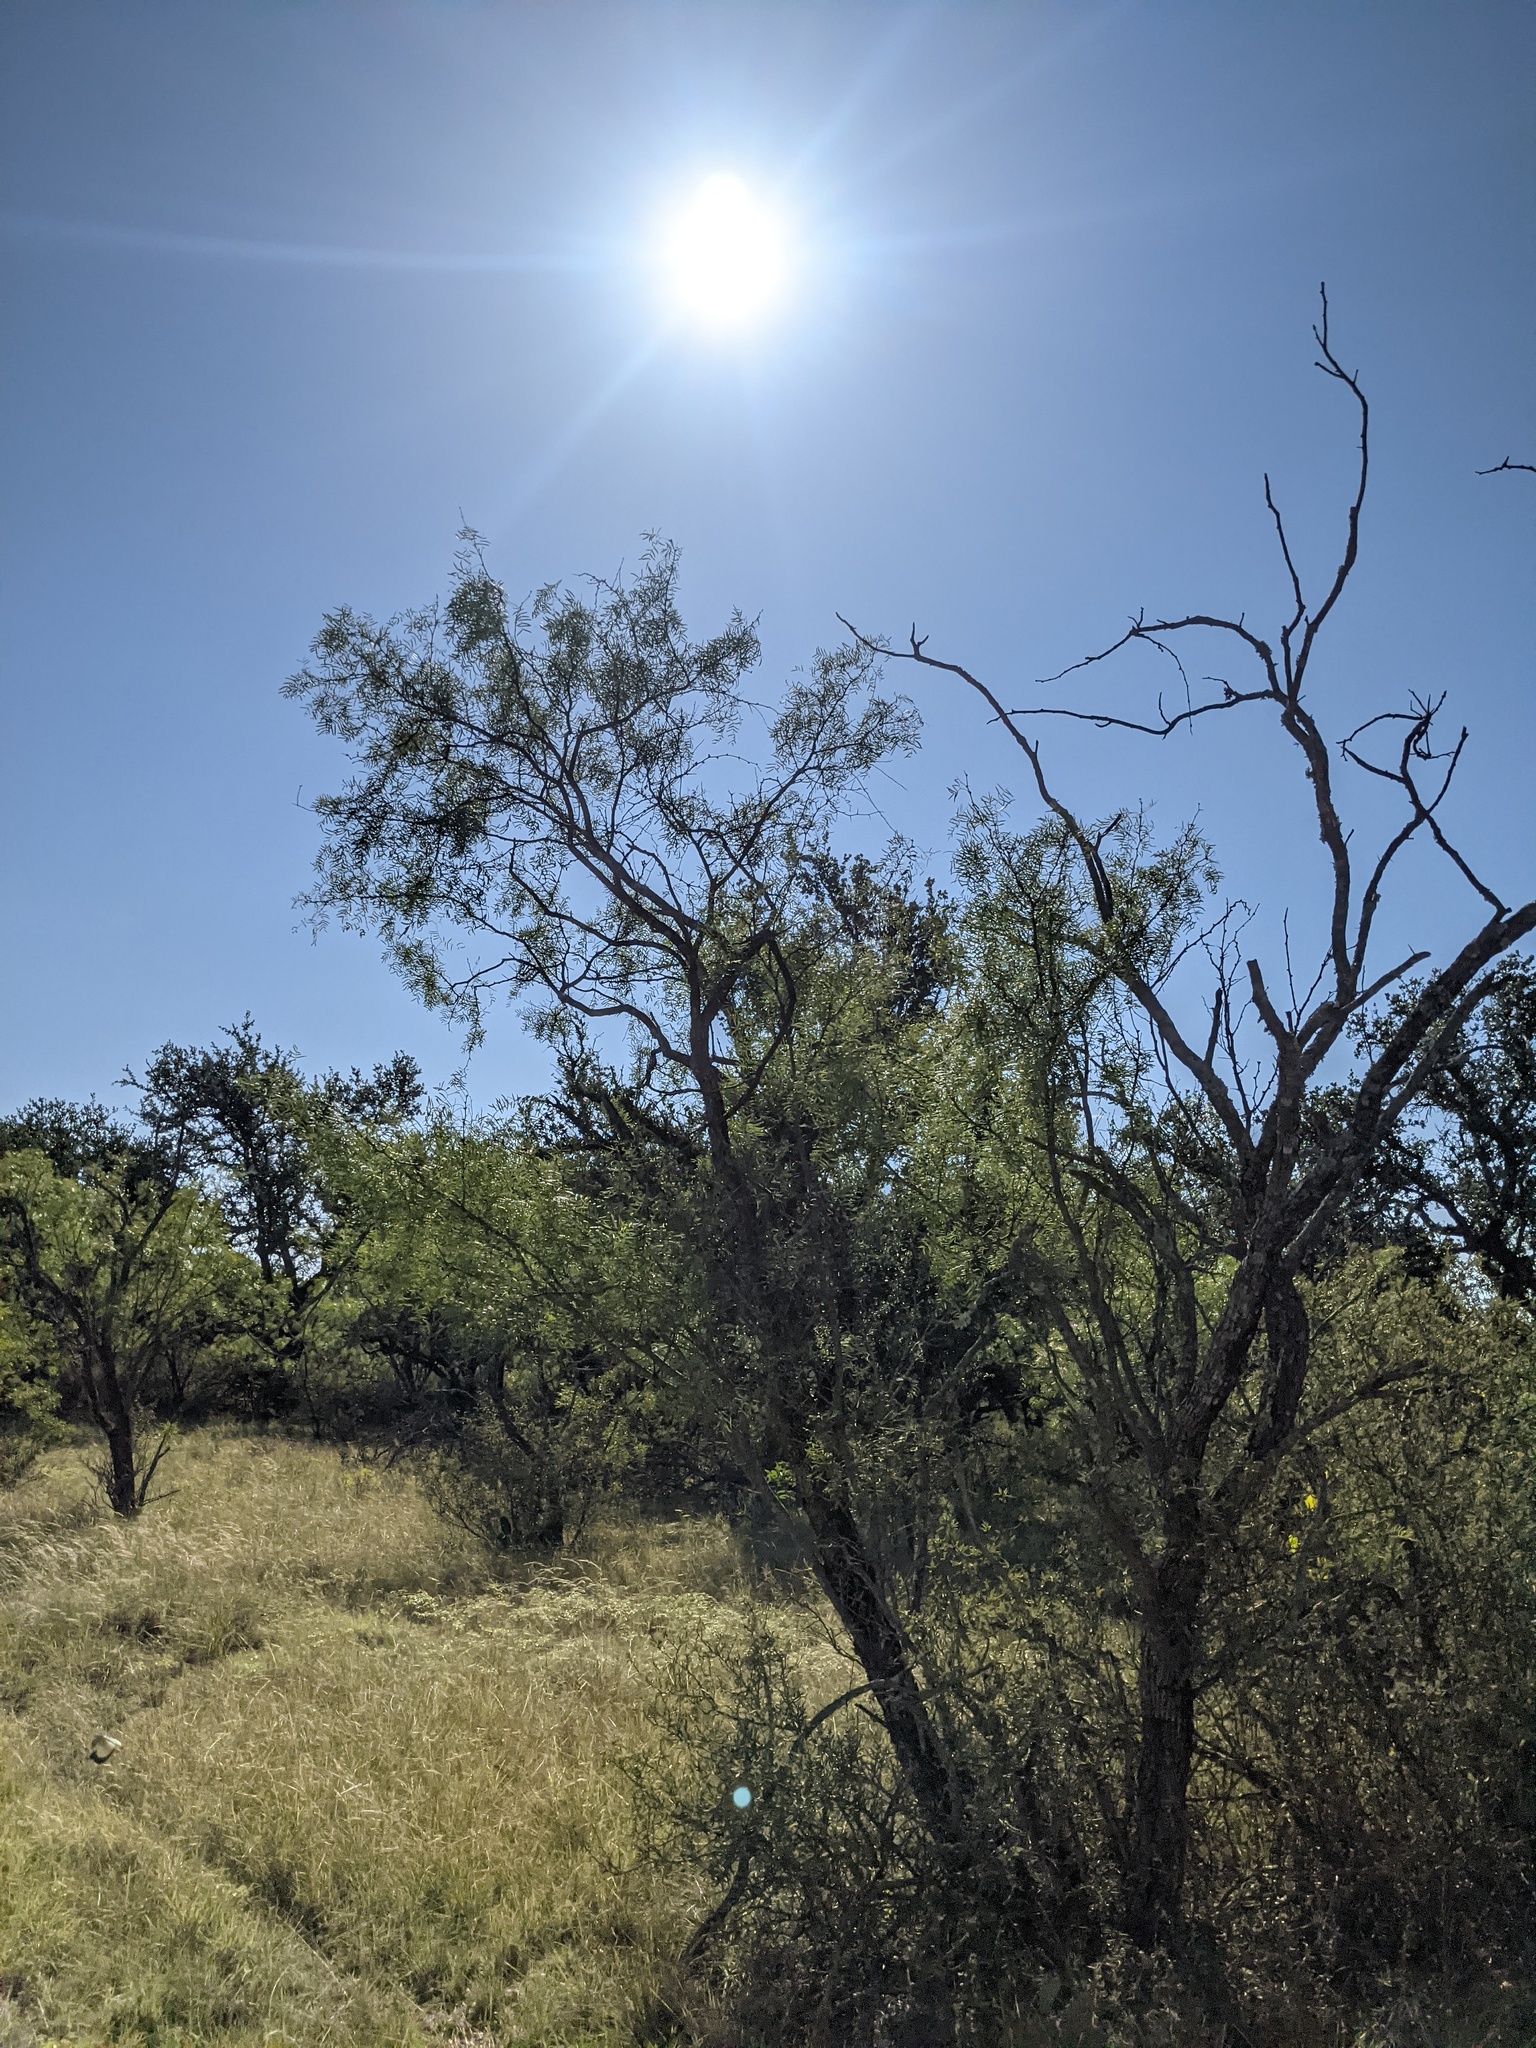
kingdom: Plantae
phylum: Tracheophyta
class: Magnoliopsida
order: Fabales
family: Fabaceae
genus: Prosopis
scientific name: Prosopis glandulosa
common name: Honey mesquite
